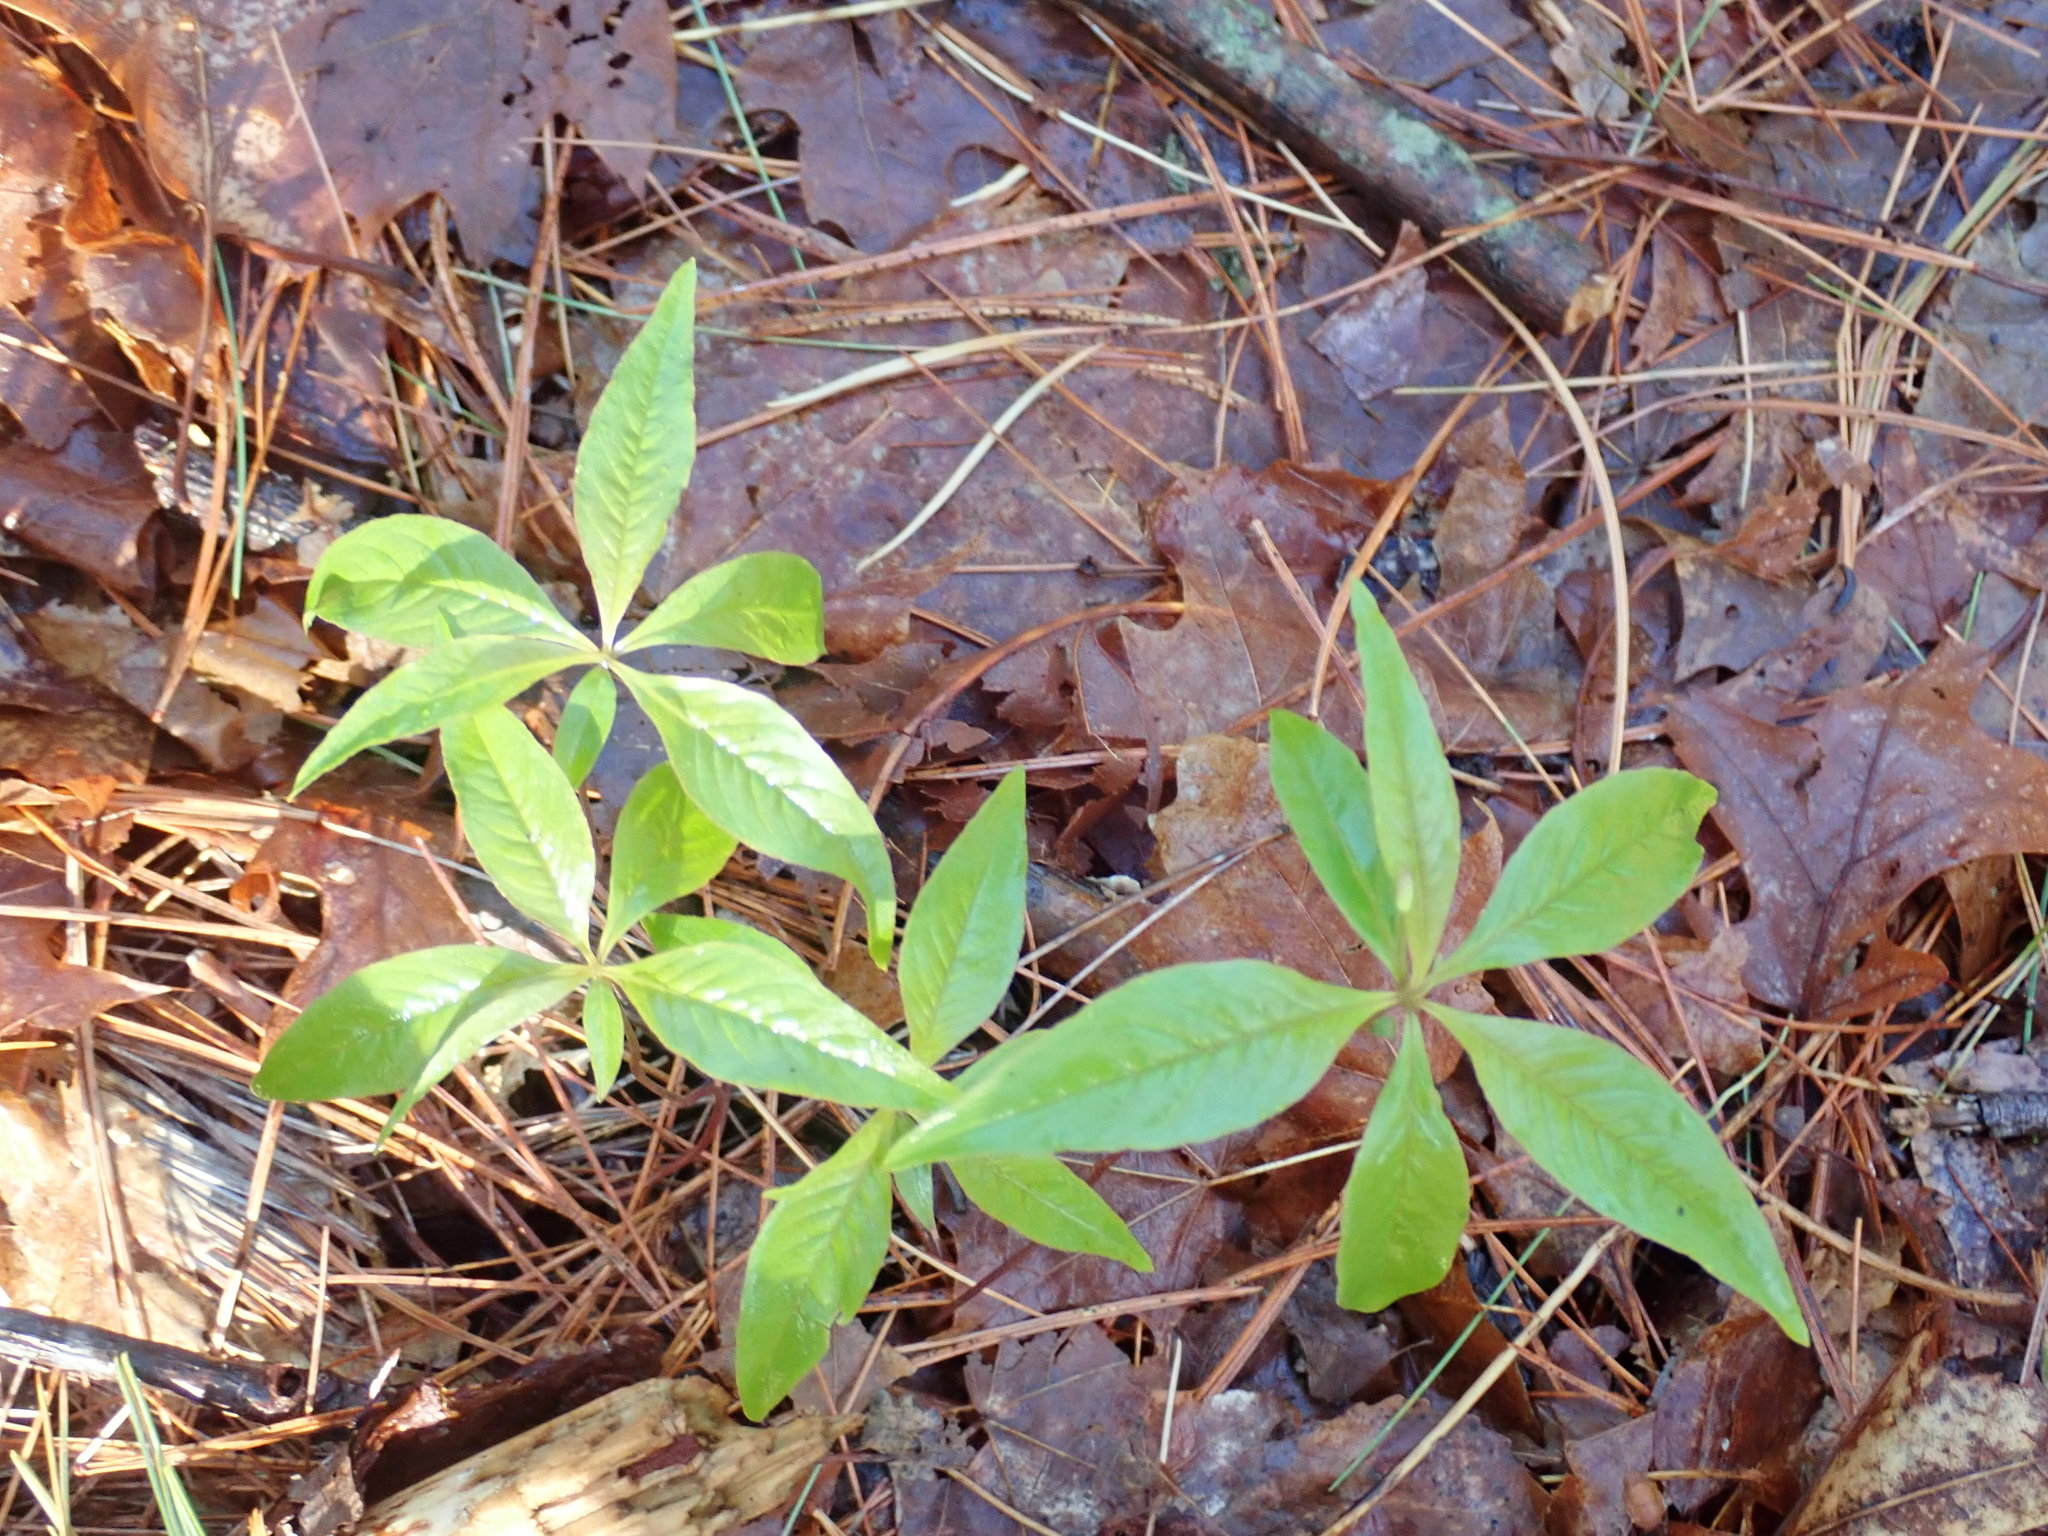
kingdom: Plantae
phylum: Tracheophyta
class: Magnoliopsida
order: Ericales
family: Primulaceae
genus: Lysimachia
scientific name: Lysimachia borealis
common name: American starflower
